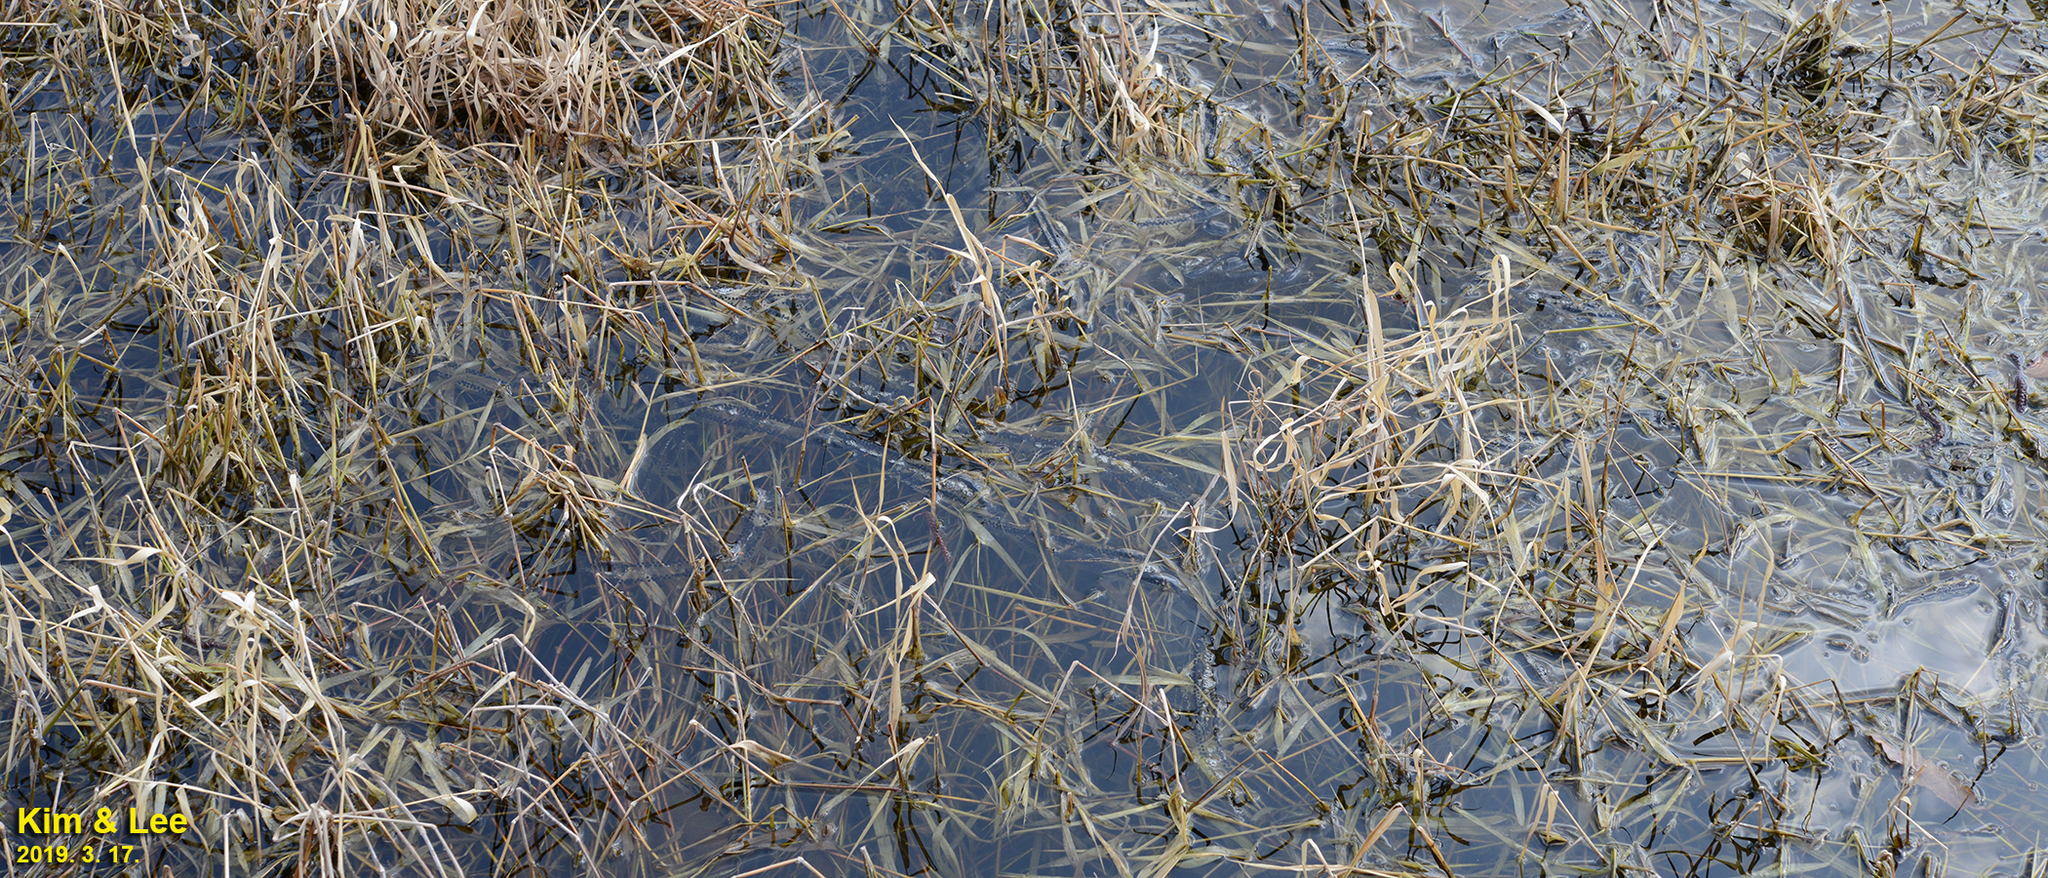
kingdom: Animalia
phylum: Chordata
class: Amphibia
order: Anura
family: Bufonidae
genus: Bufo
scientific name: Bufo gargarizans
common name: Asiatic toad
